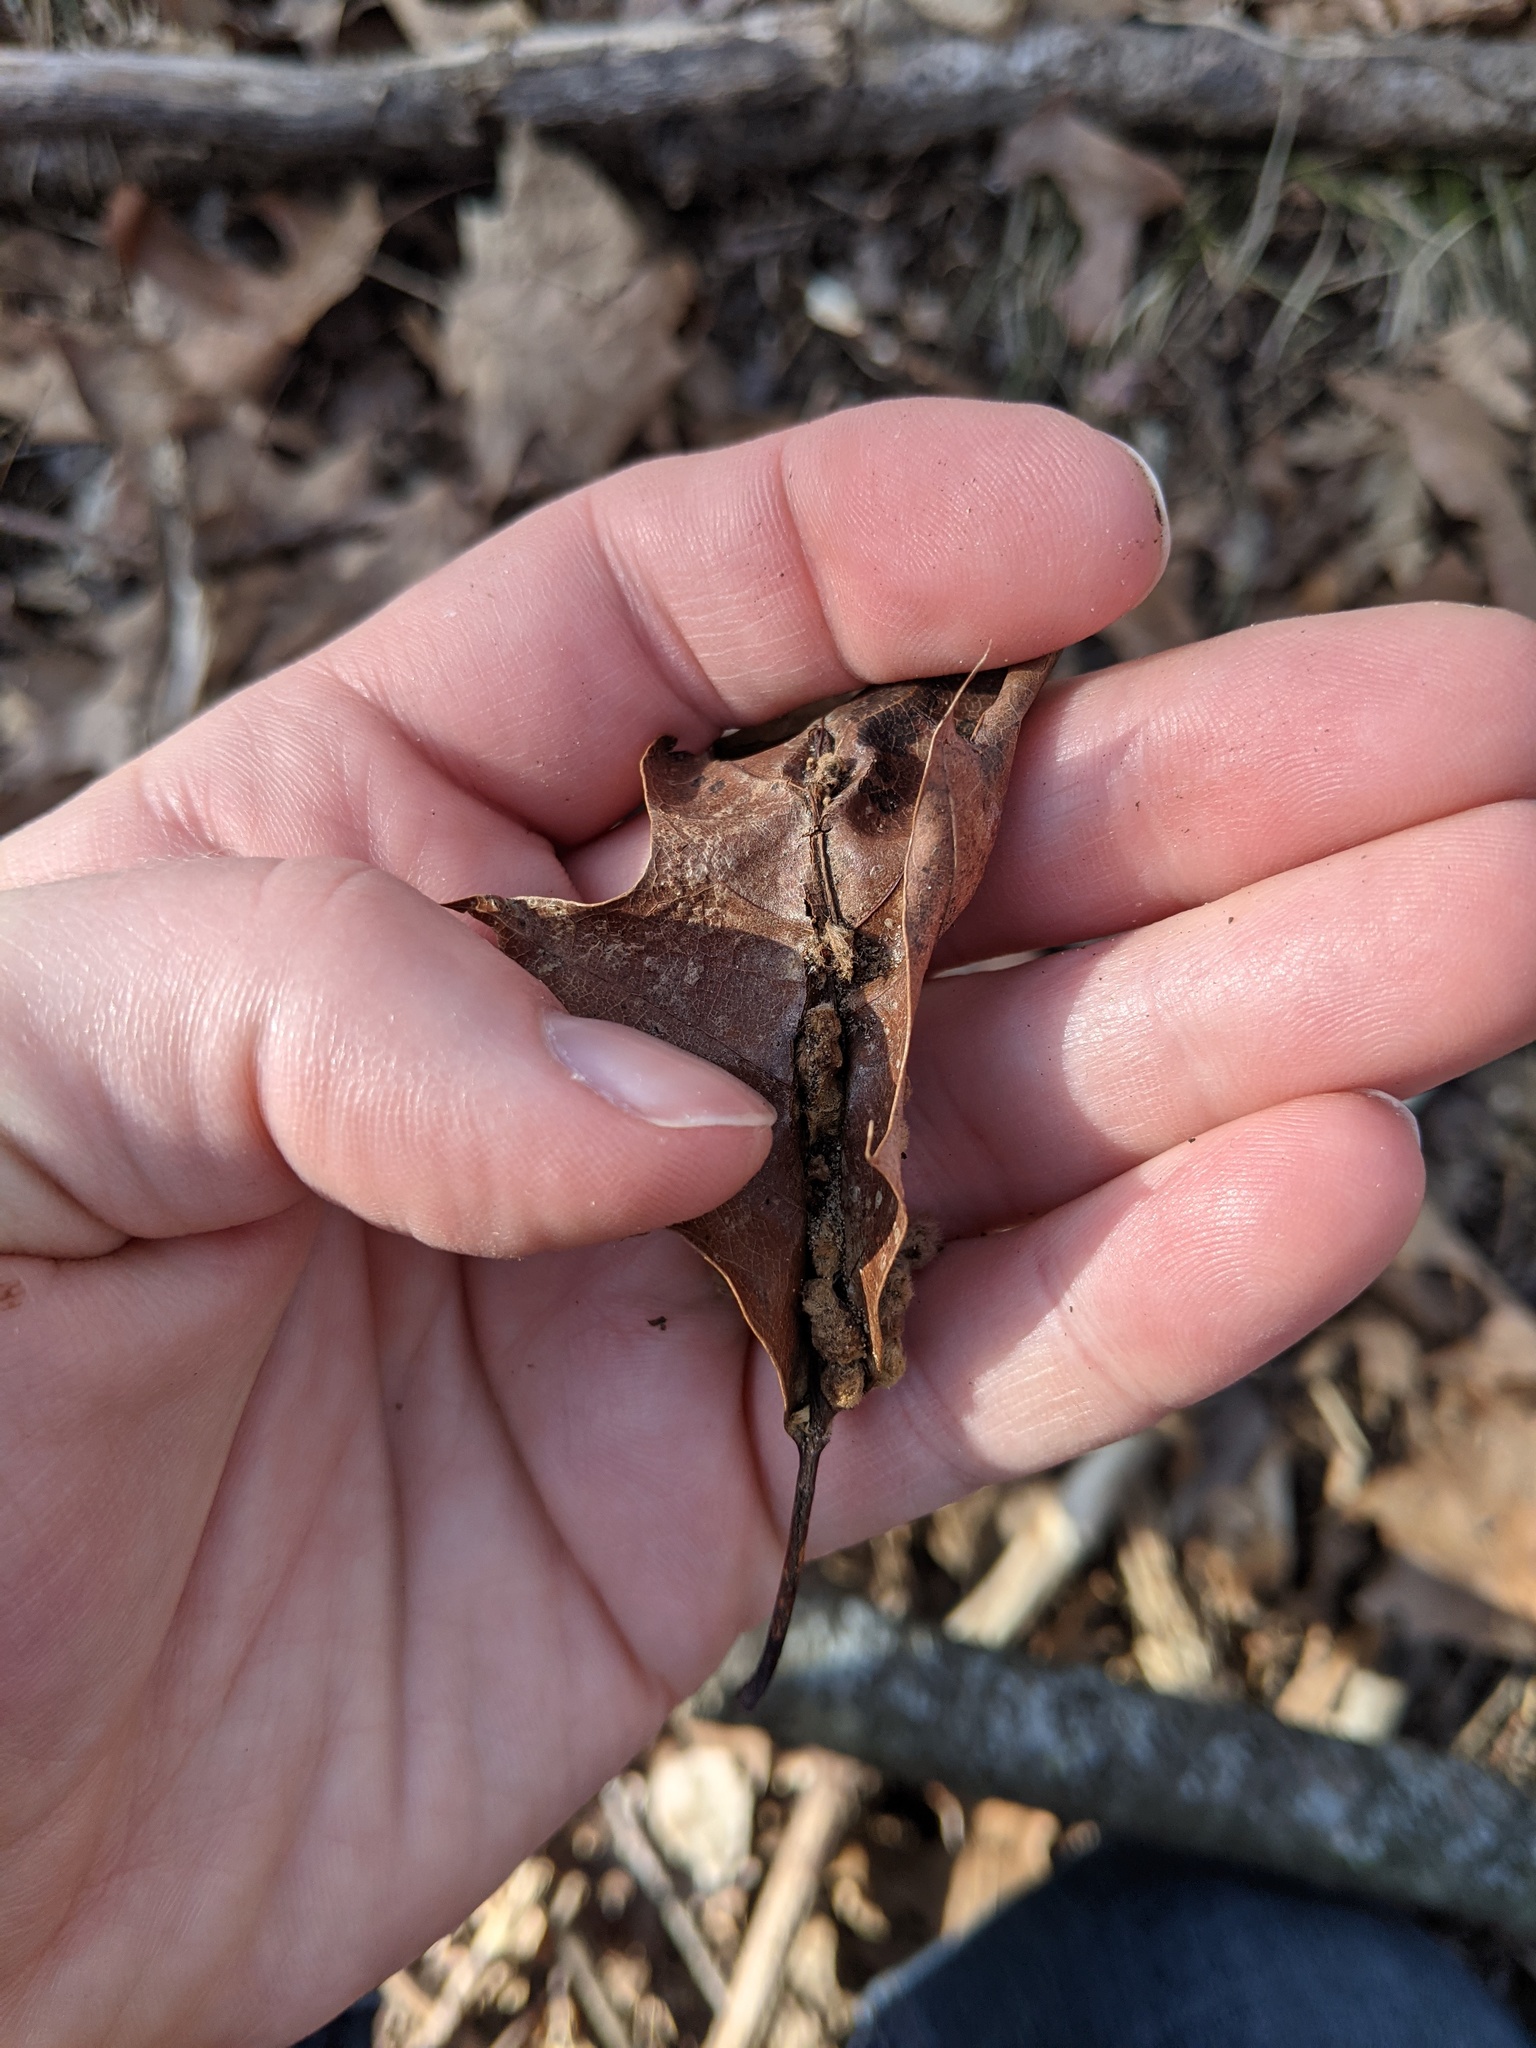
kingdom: Animalia
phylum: Arthropoda
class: Insecta
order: Hymenoptera
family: Cynipidae
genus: Callirhytis
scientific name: Callirhytis
